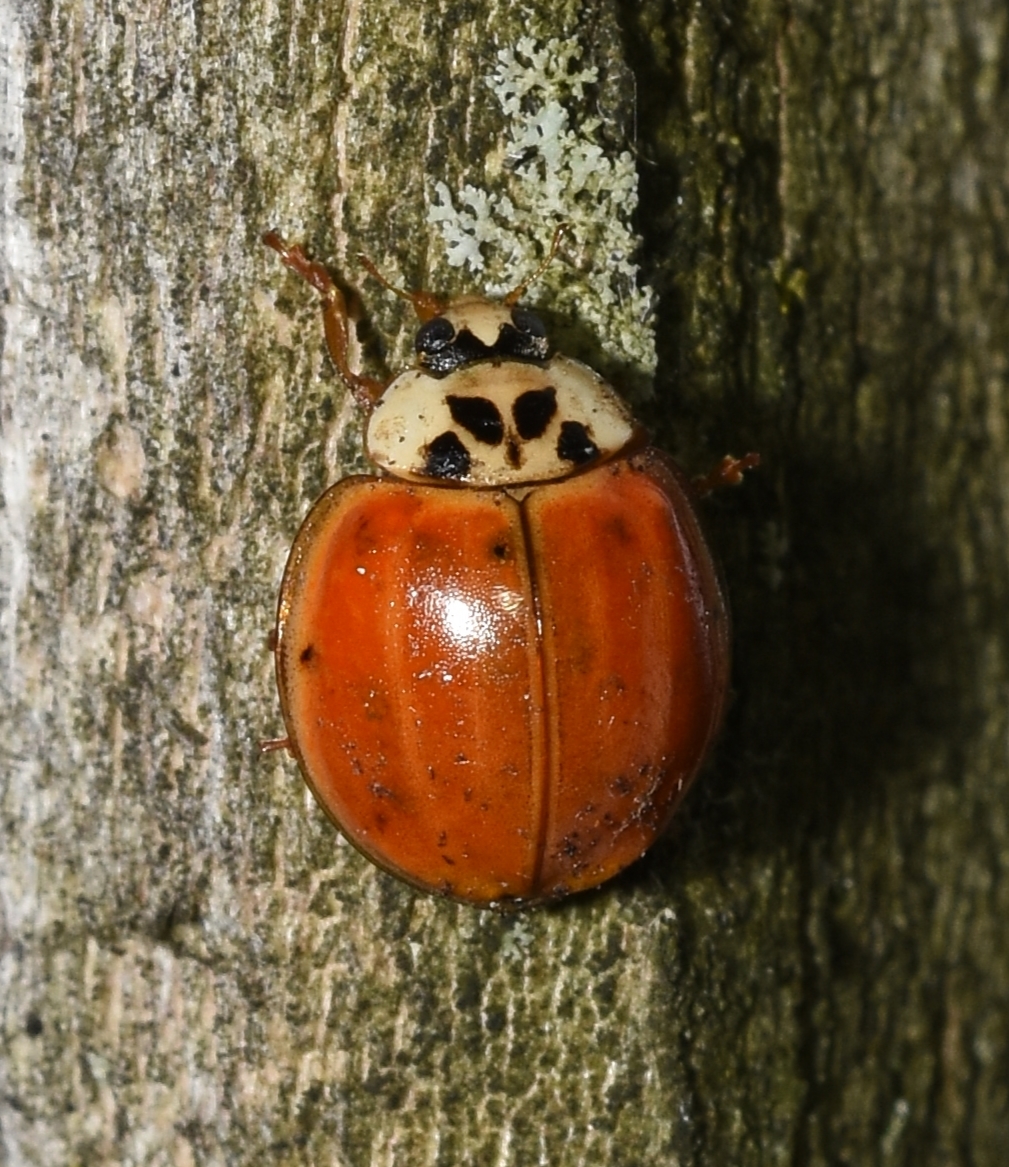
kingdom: Animalia
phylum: Arthropoda
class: Insecta
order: Coleoptera
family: Coccinellidae
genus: Harmonia
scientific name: Harmonia axyridis
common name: Harlequin ladybird
